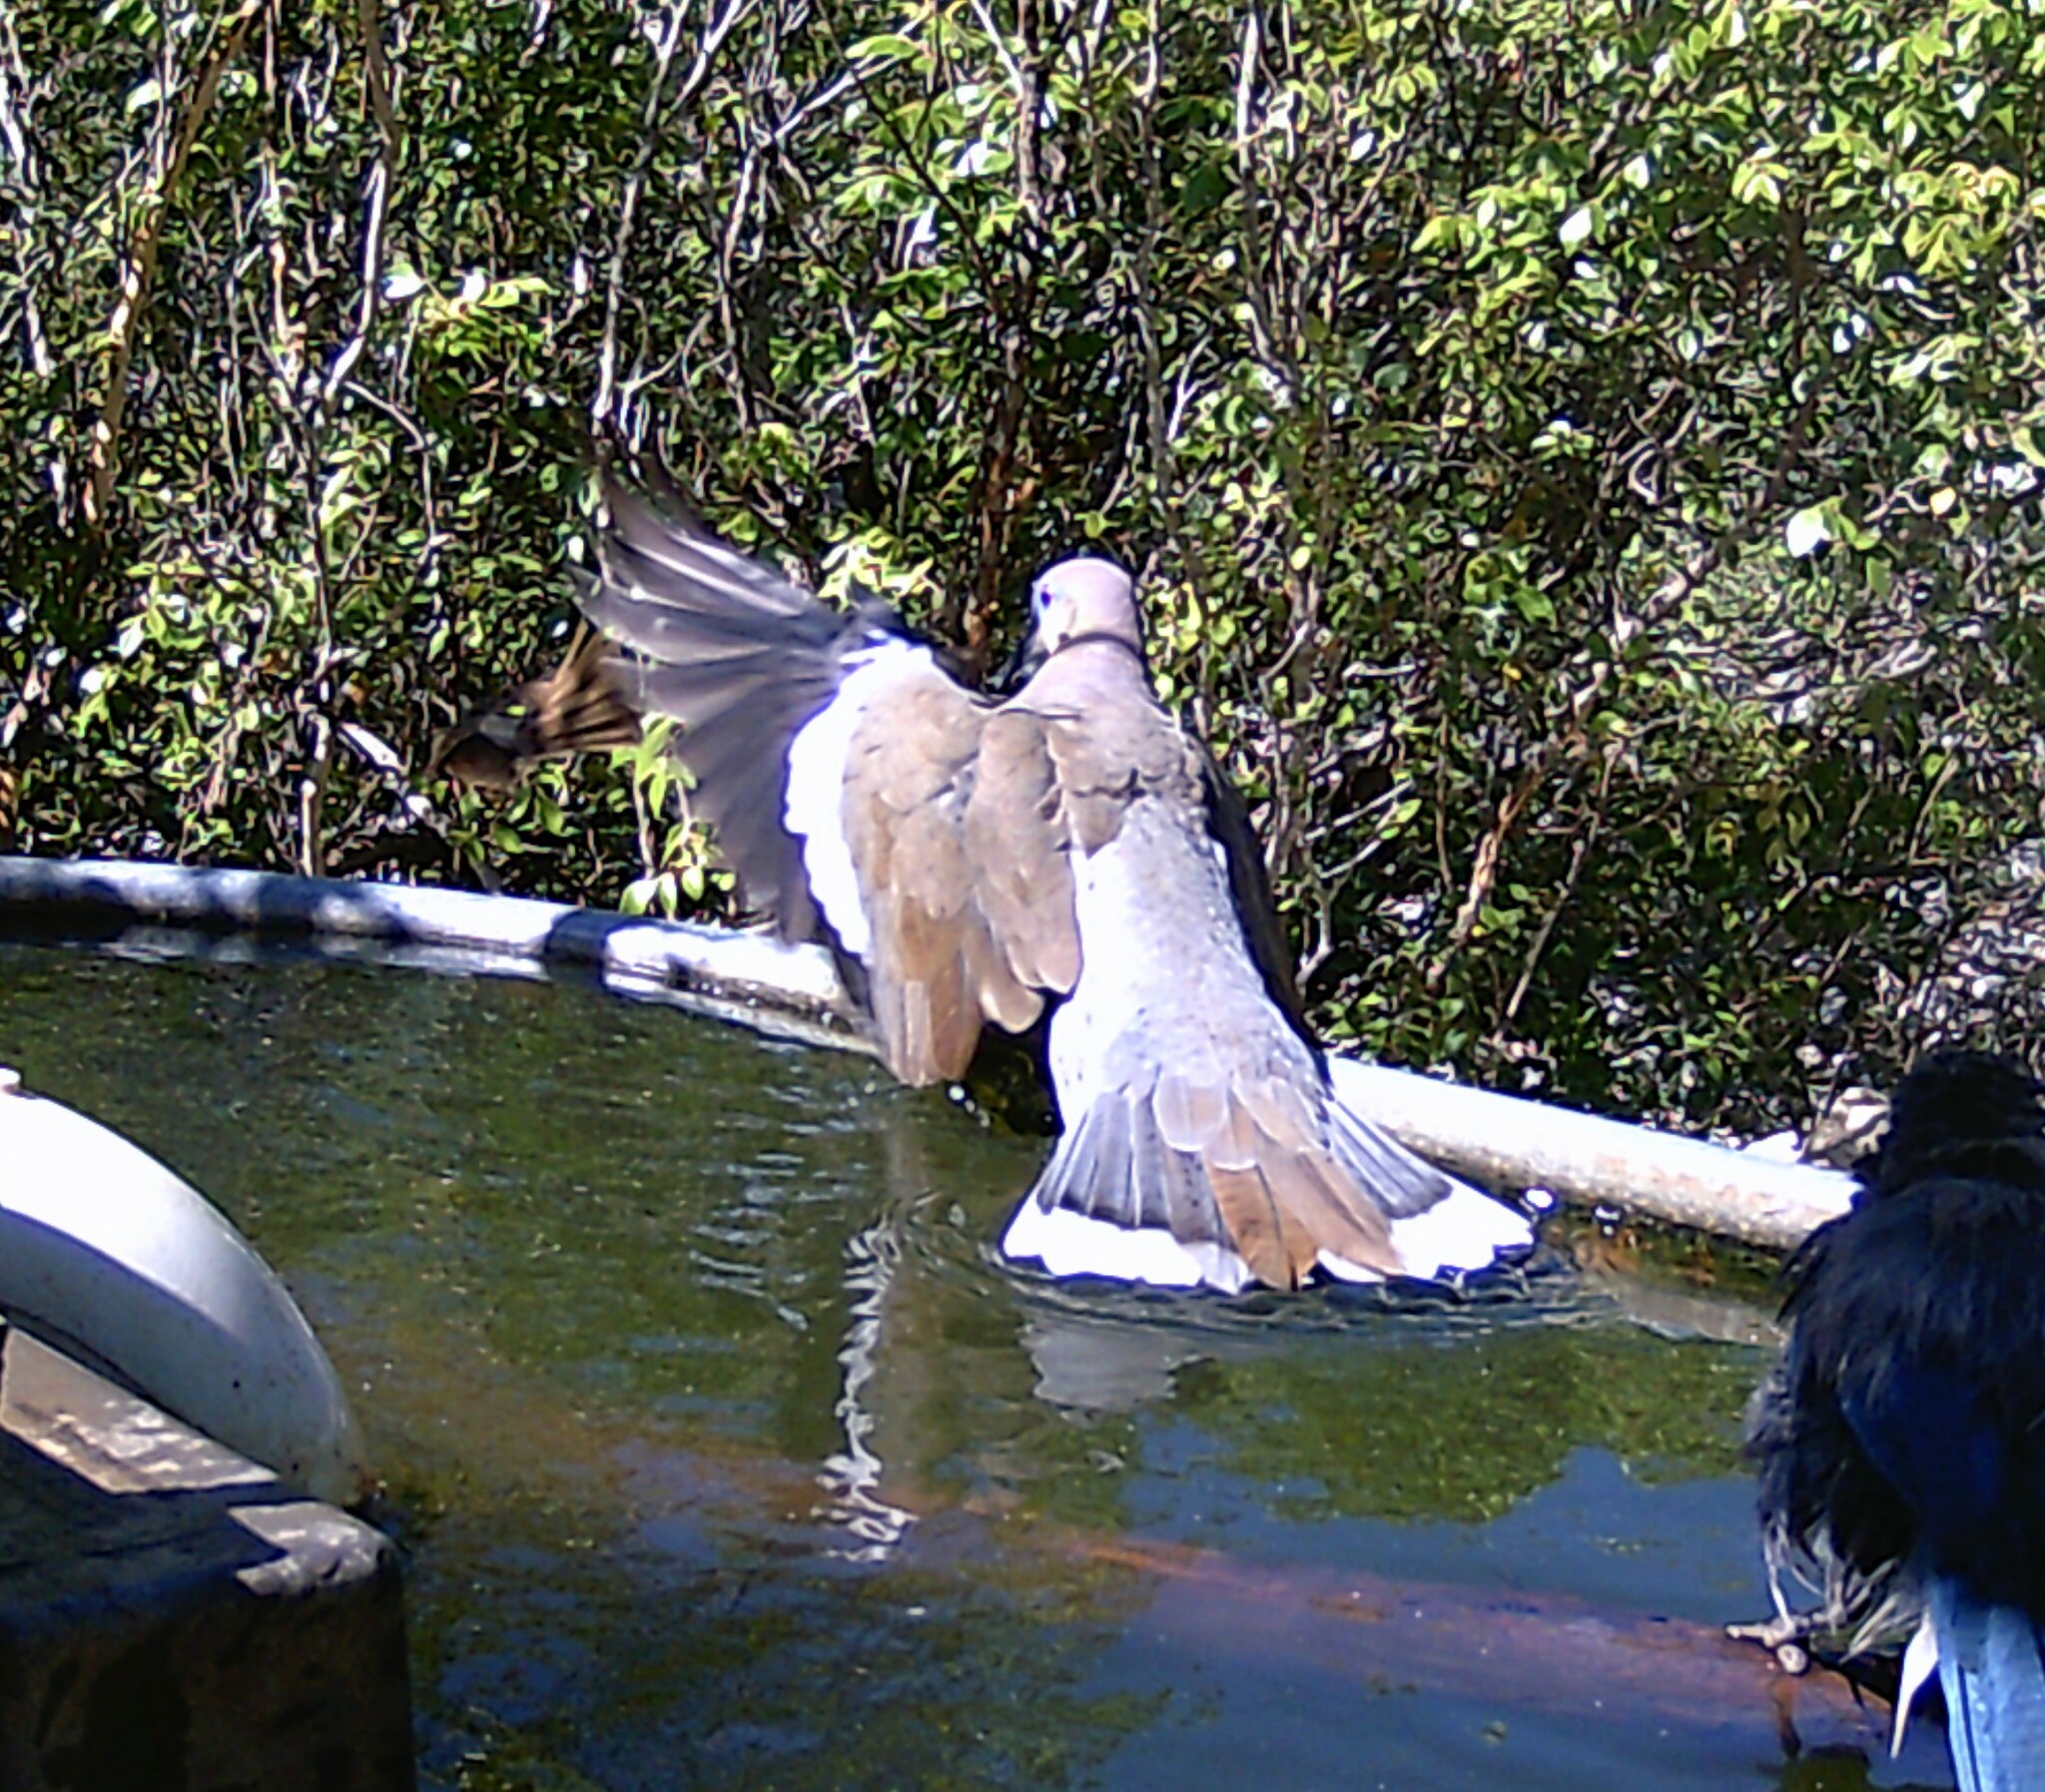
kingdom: Animalia
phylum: Chordata
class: Aves
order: Columbiformes
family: Columbidae
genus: Zenaida
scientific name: Zenaida asiatica
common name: White-winged dove
